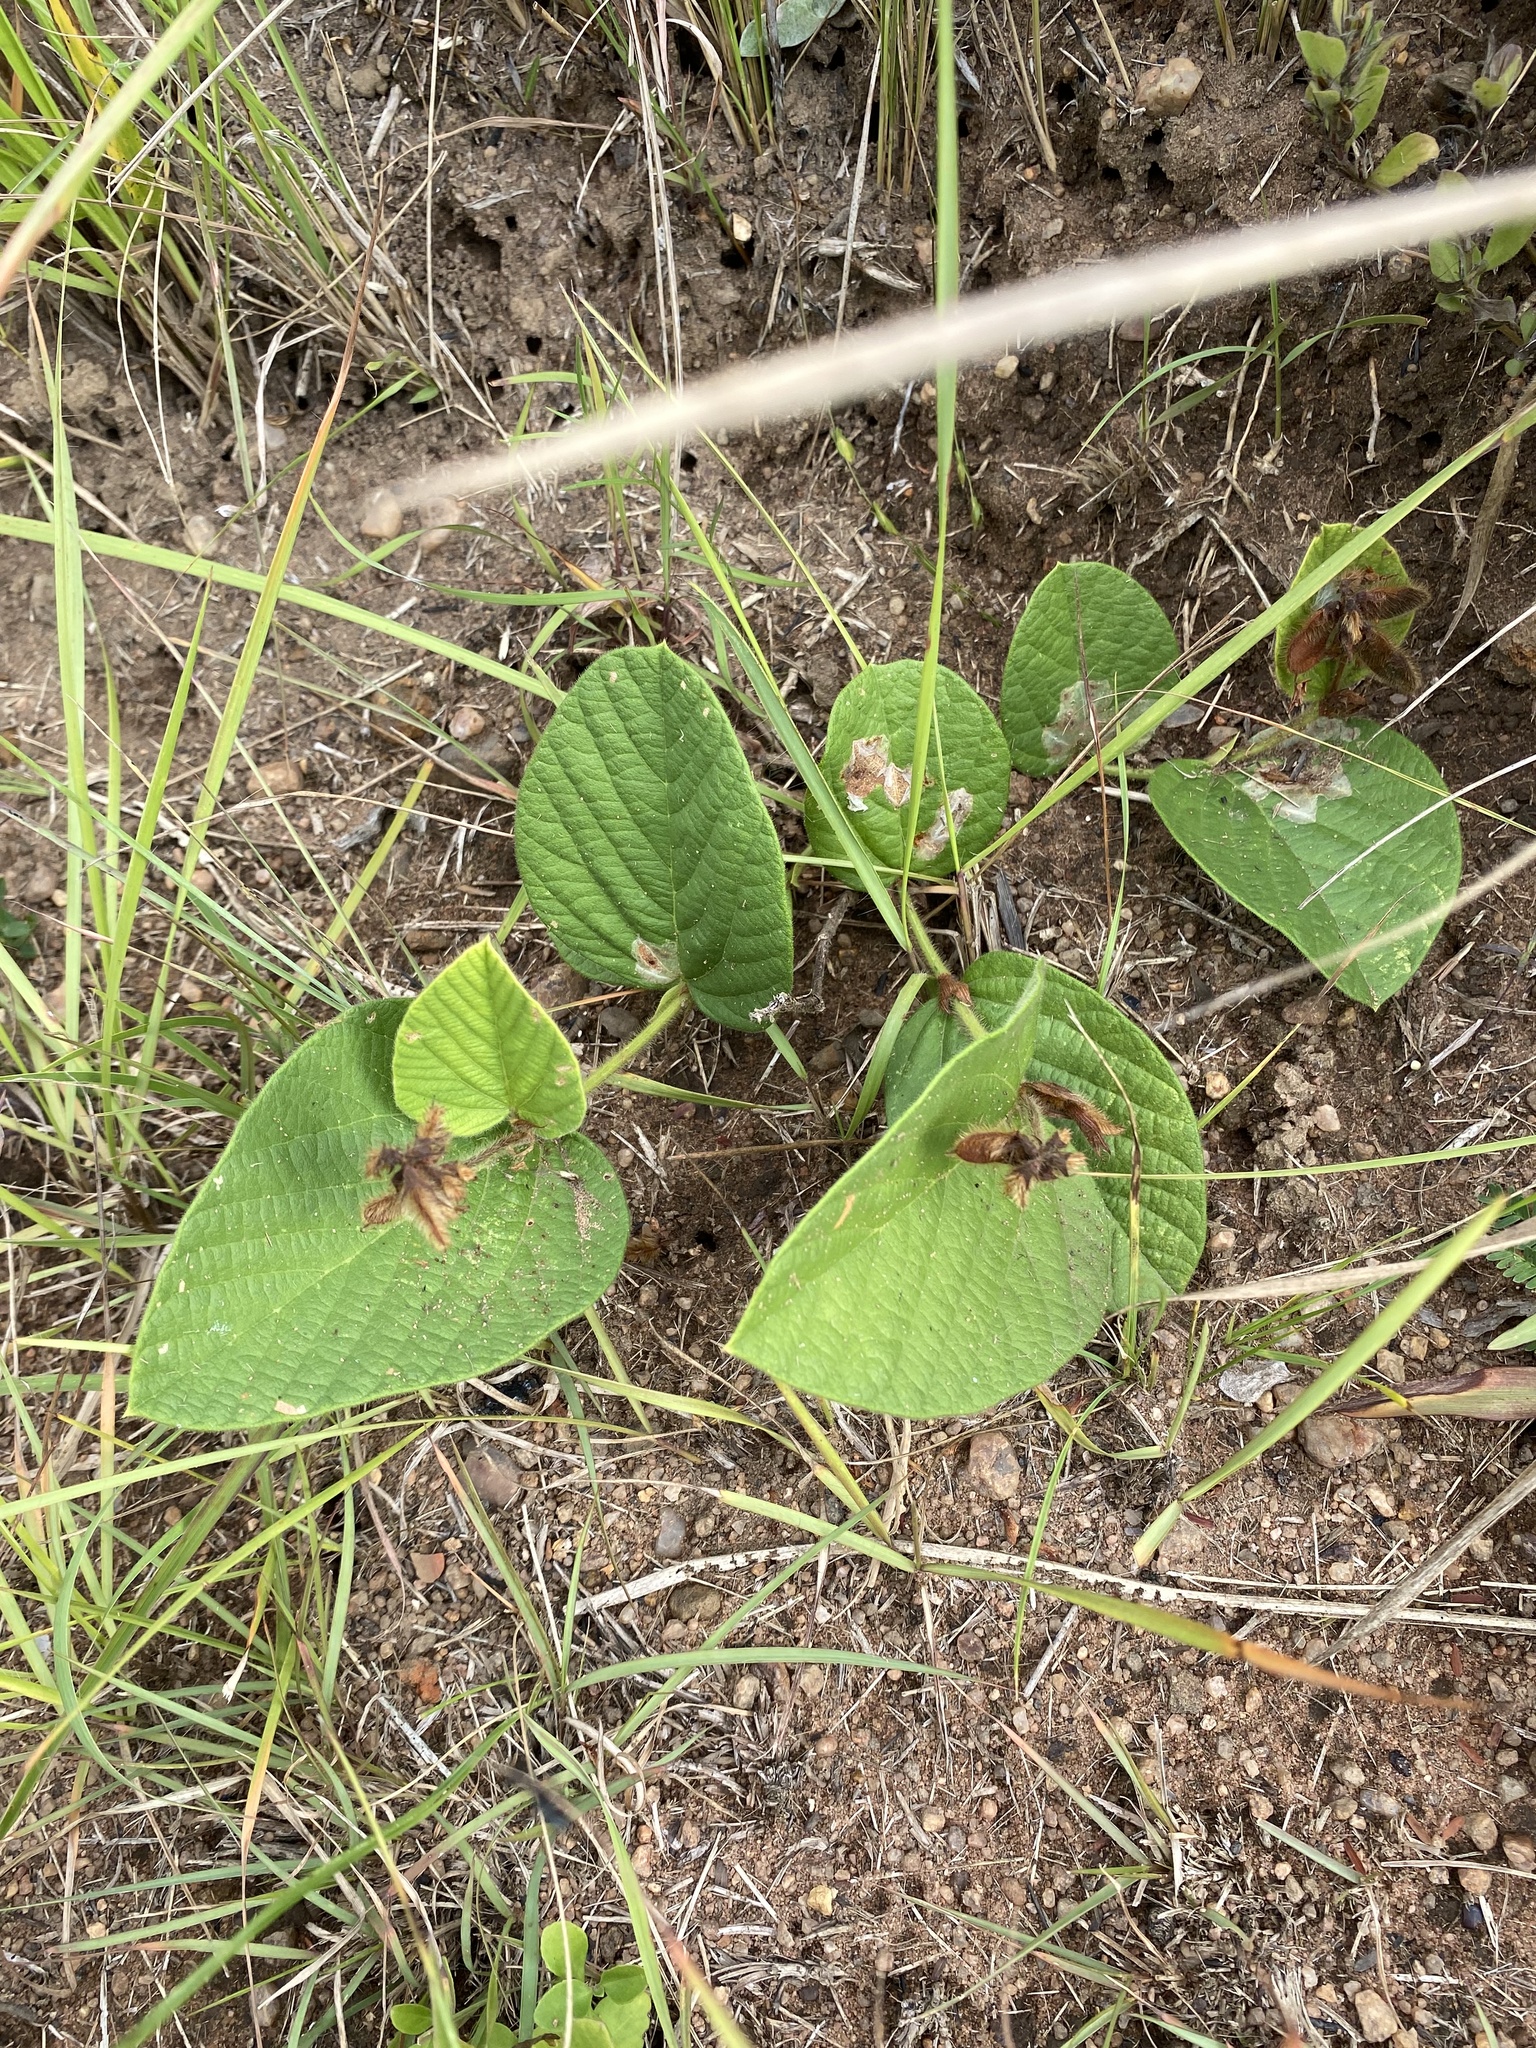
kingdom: Plantae
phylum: Tracheophyta
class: Magnoliopsida
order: Fabales
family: Fabaceae
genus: Eriosema
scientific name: Eriosema cordatum
